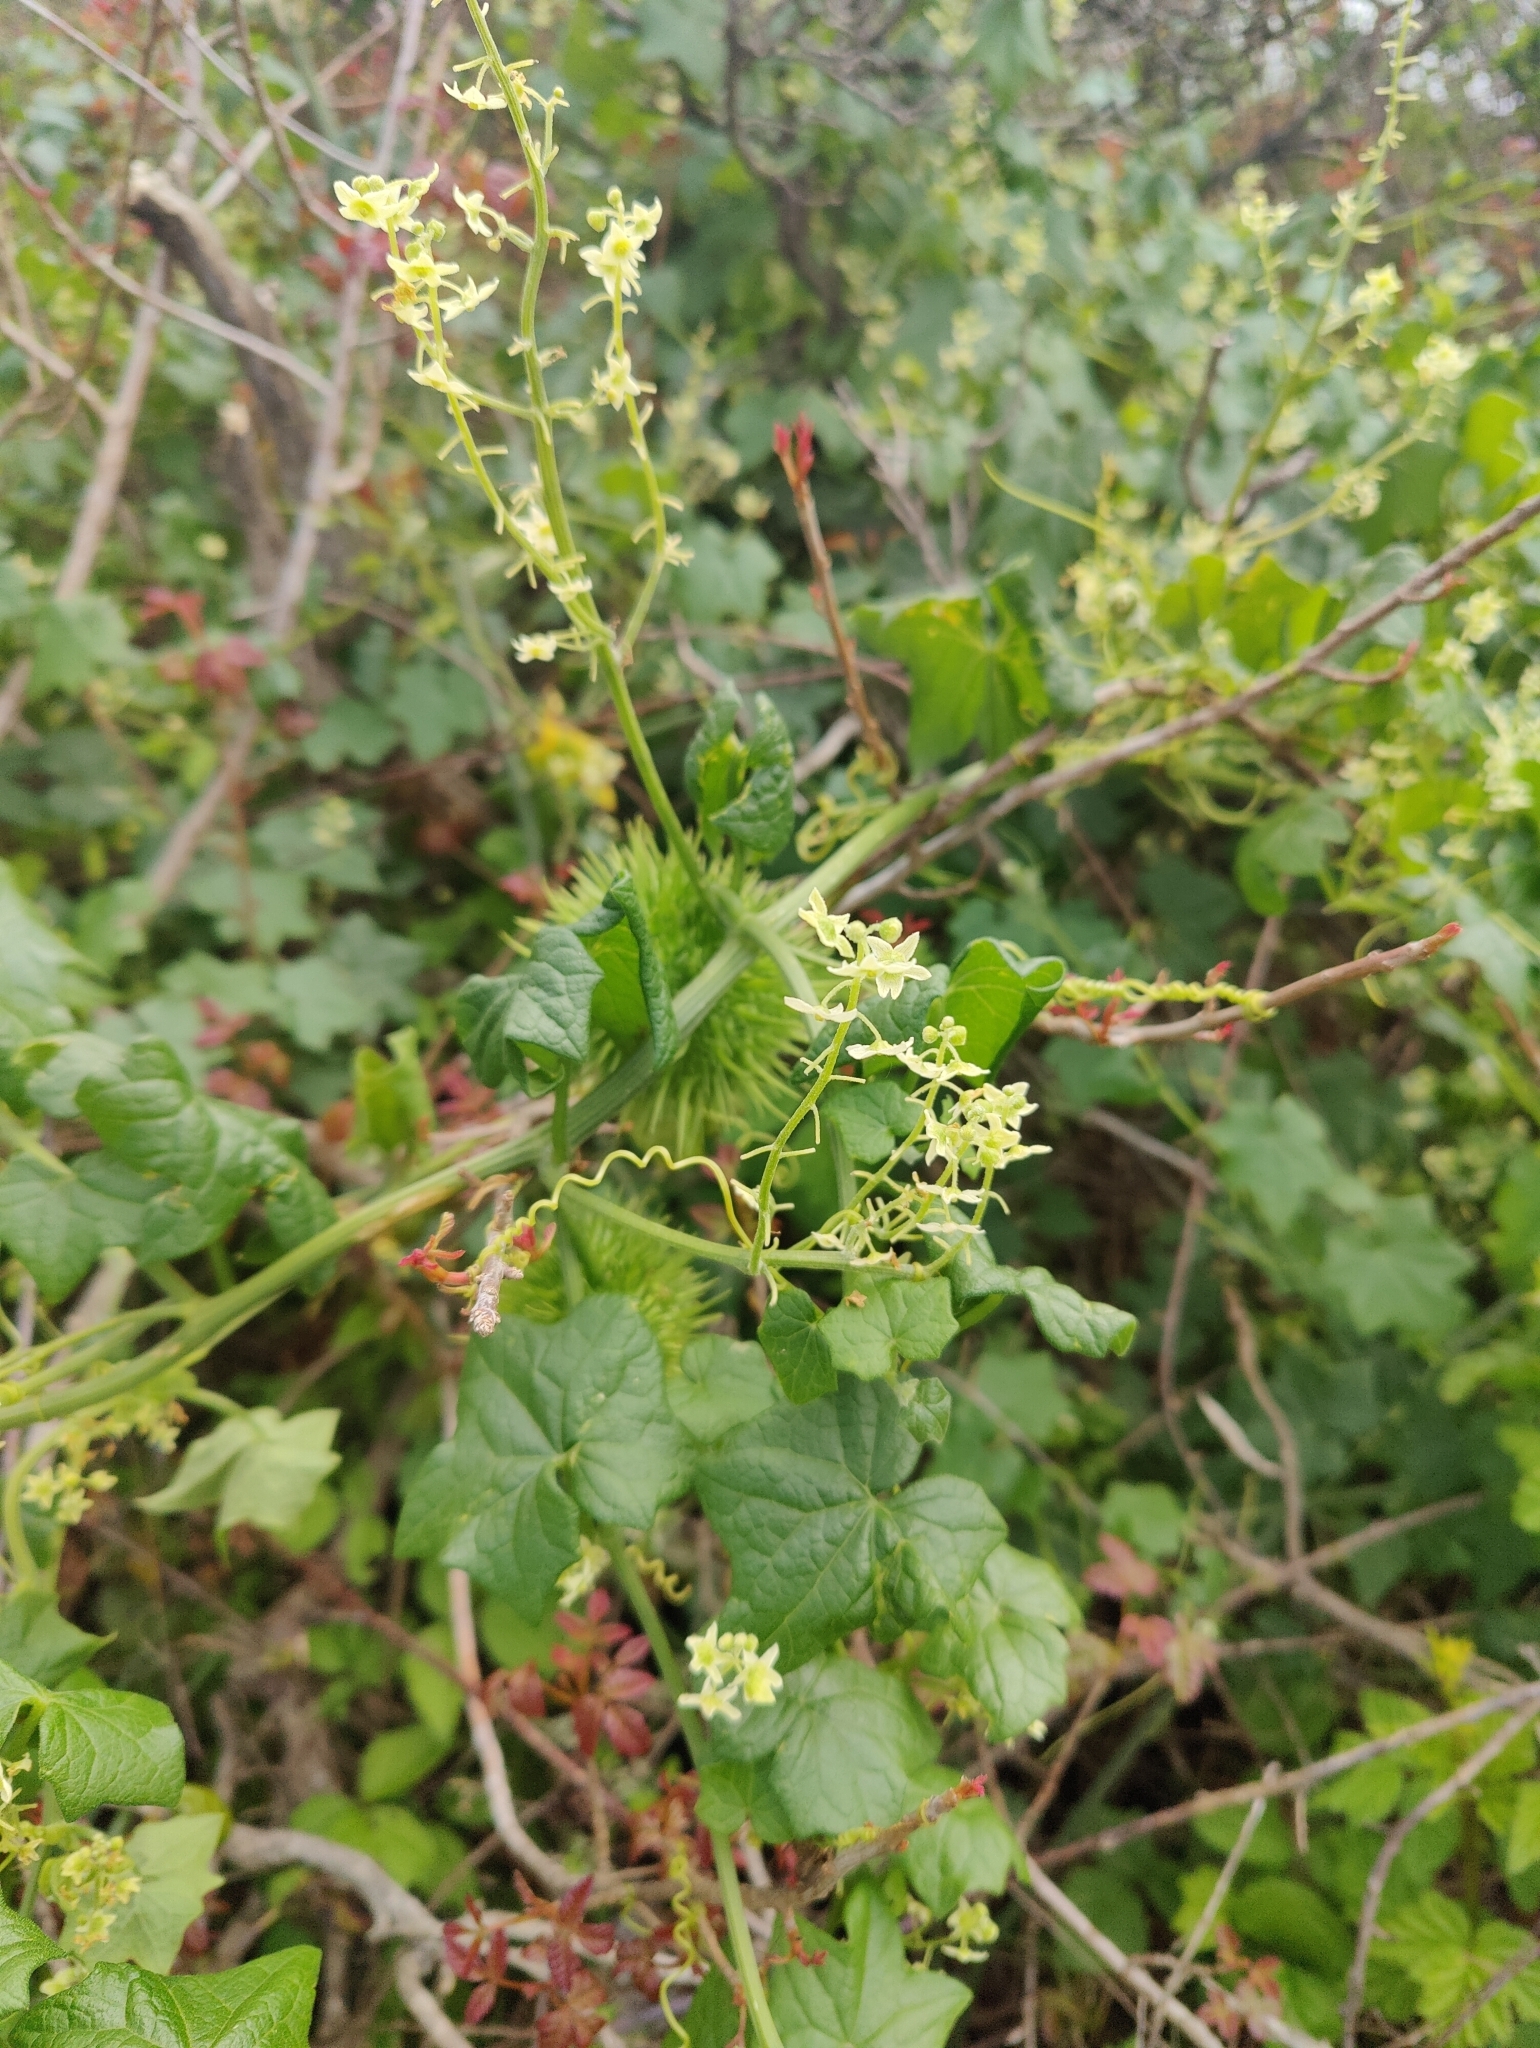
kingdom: Plantae
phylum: Tracheophyta
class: Magnoliopsida
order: Cucurbitales
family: Cucurbitaceae
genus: Marah
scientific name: Marah fabacea
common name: California manroot
